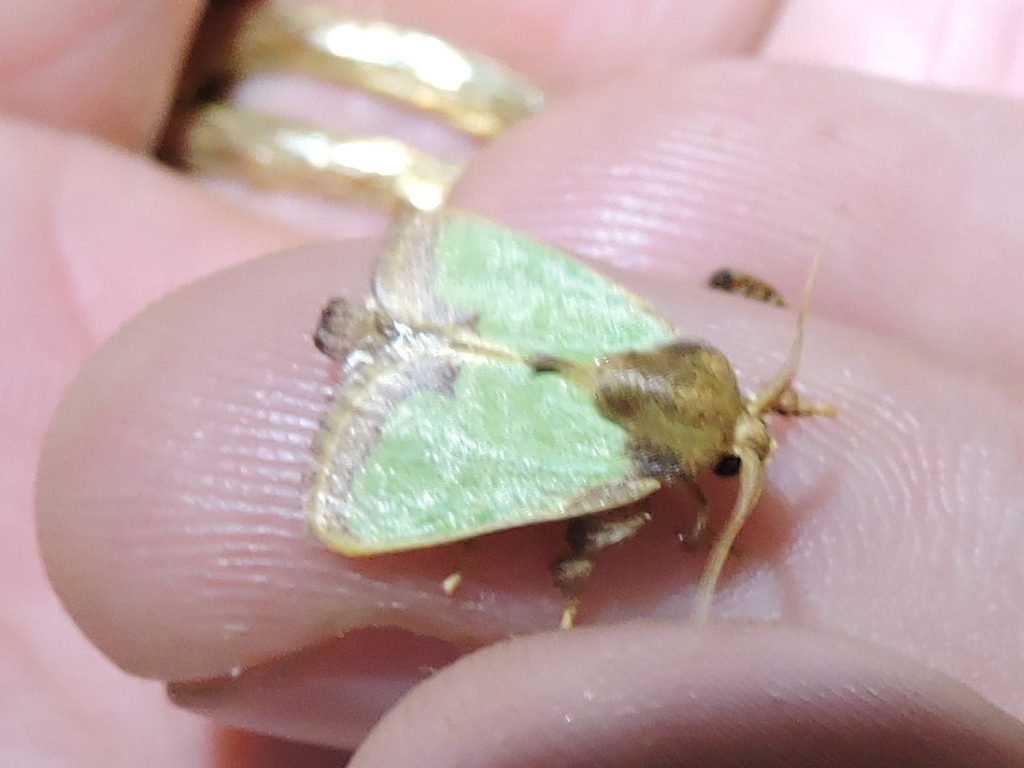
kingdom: Animalia
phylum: Arthropoda
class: Insecta
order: Lepidoptera
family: Limacodidae
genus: Euclea
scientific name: Euclea incisa
